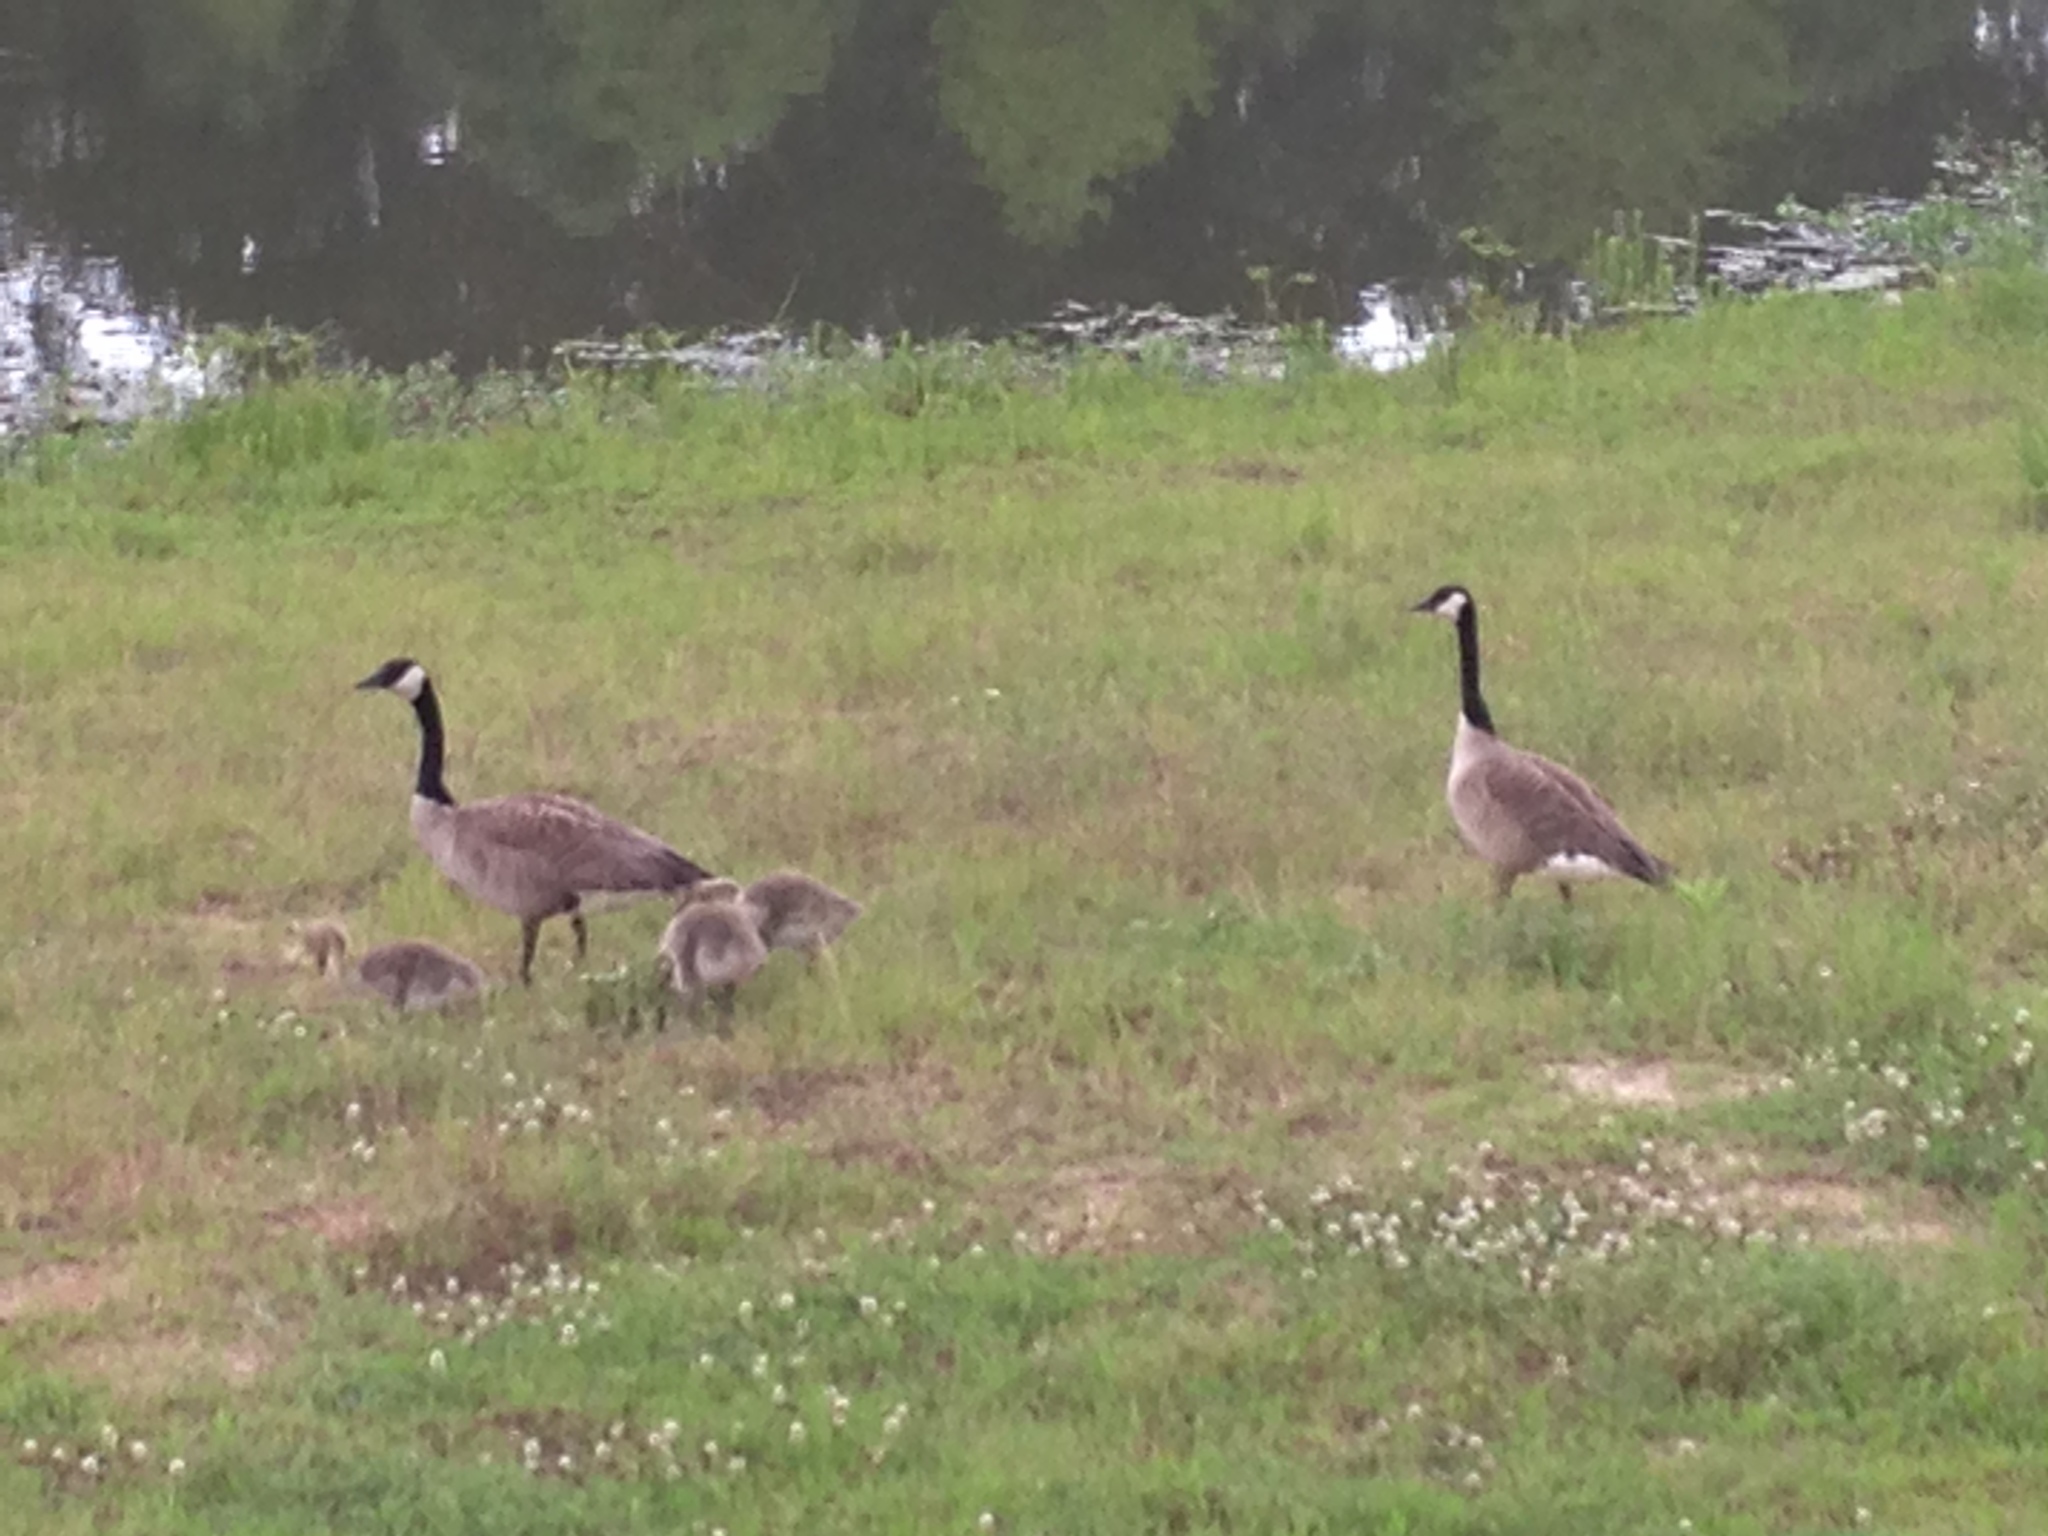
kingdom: Animalia
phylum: Chordata
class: Aves
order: Anseriformes
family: Anatidae
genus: Branta
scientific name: Branta canadensis
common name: Canada goose
